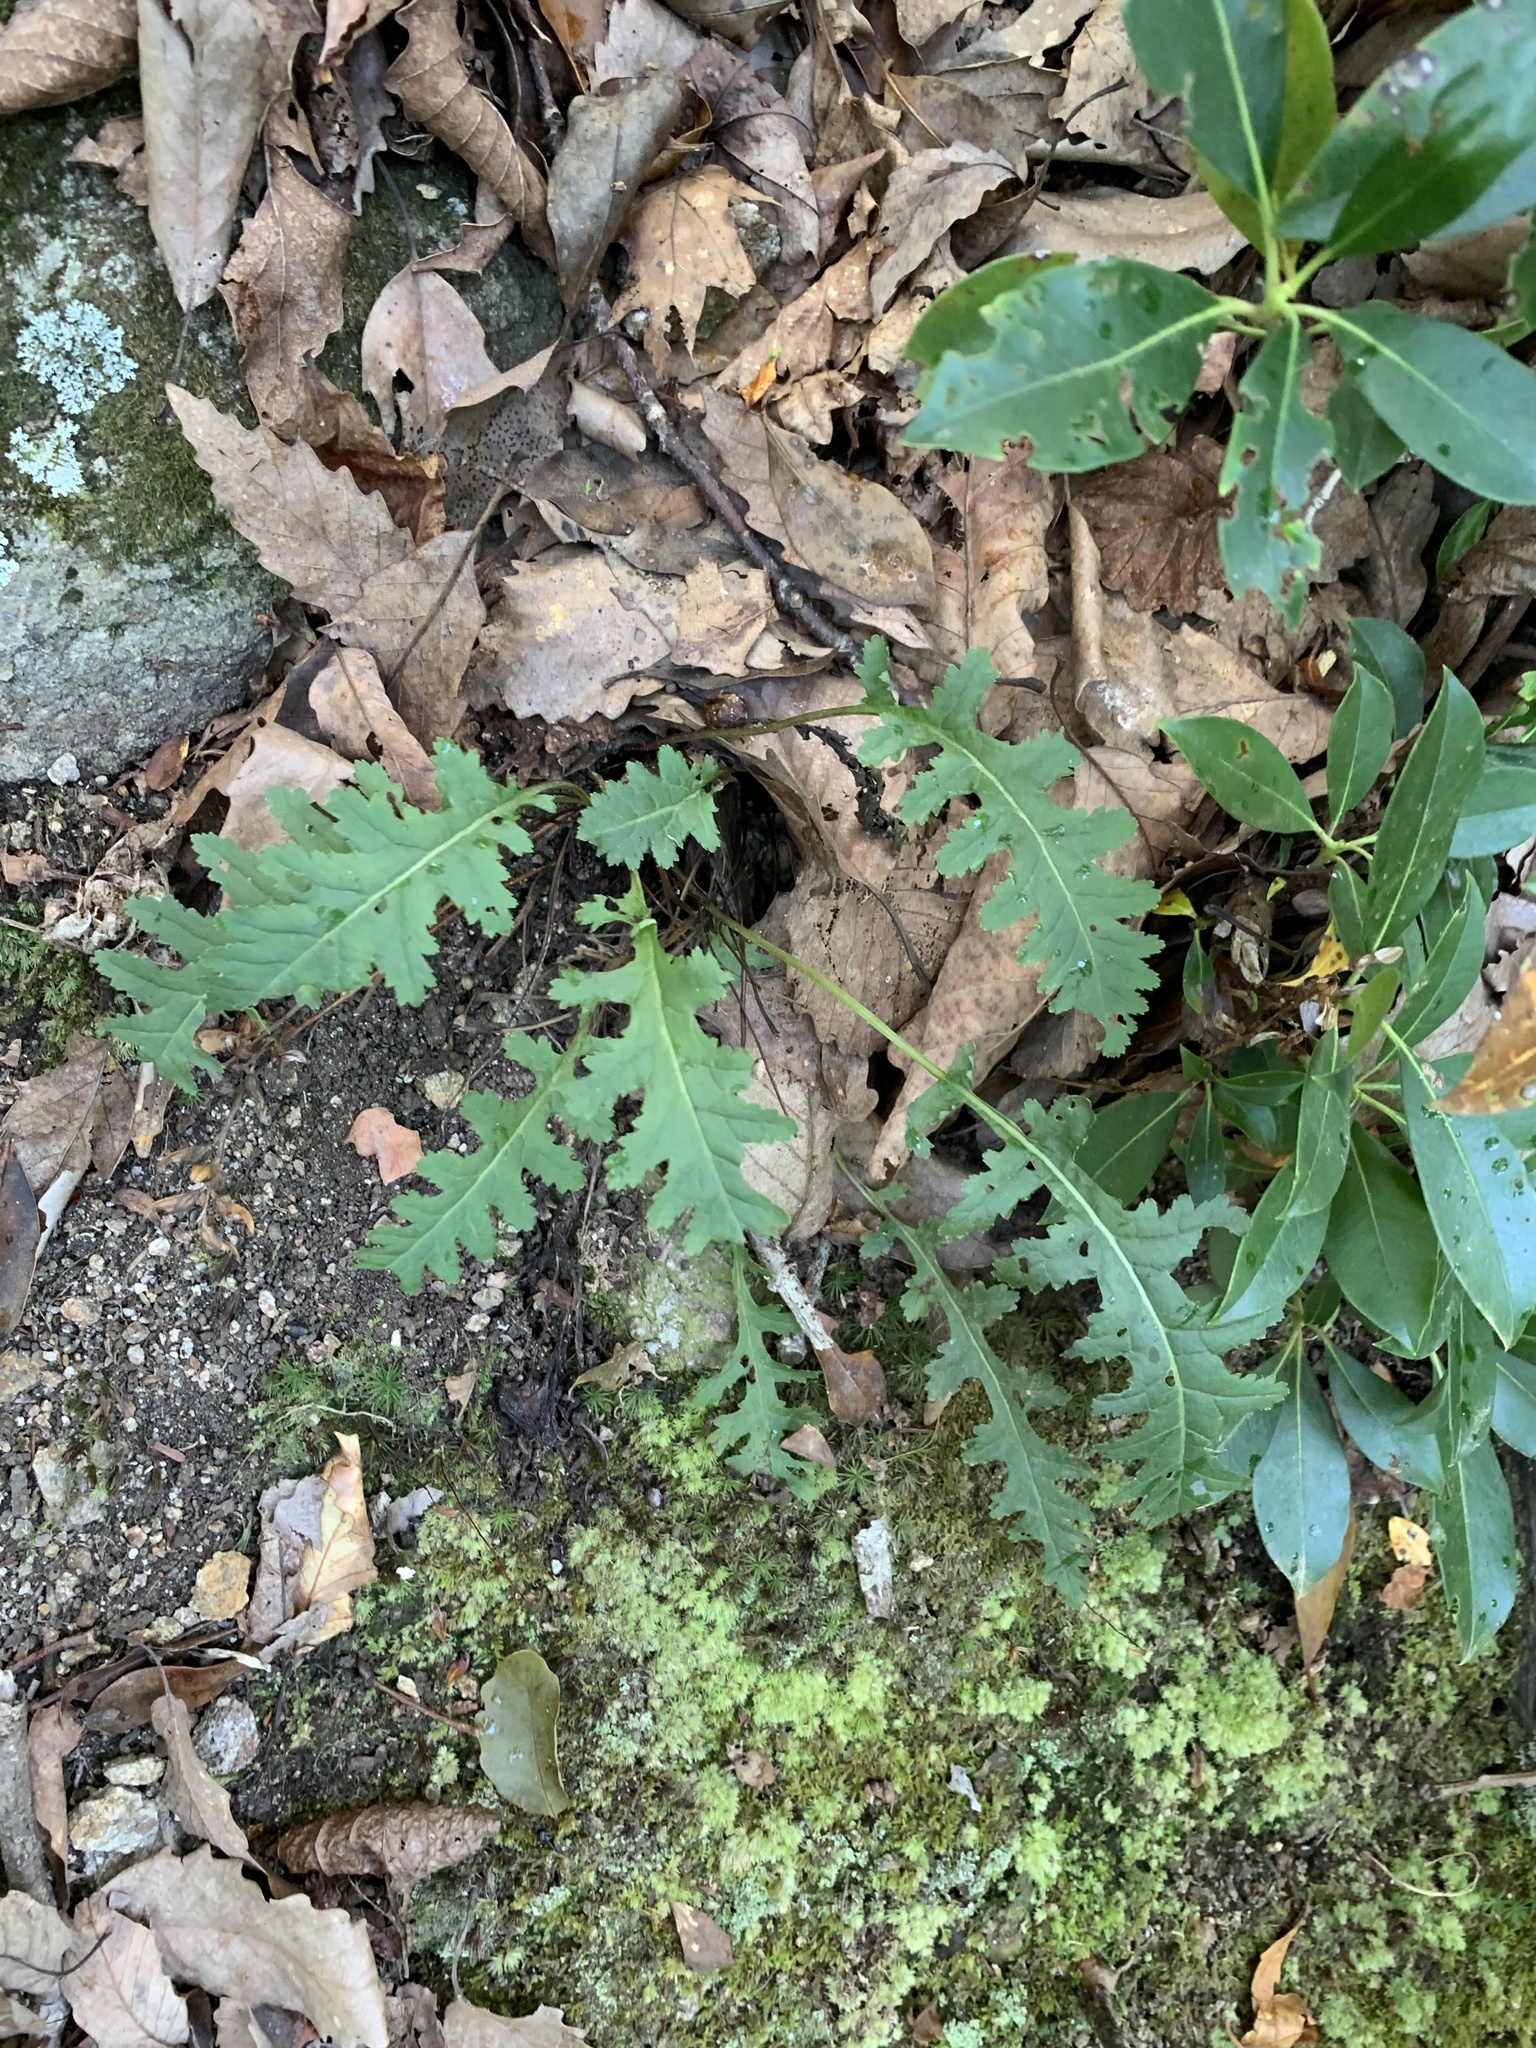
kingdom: Plantae
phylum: Tracheophyta
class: Magnoliopsida
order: Lamiales
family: Orobanchaceae
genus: Pedicularis
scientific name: Pedicularis canadensis
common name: Early lousewort
